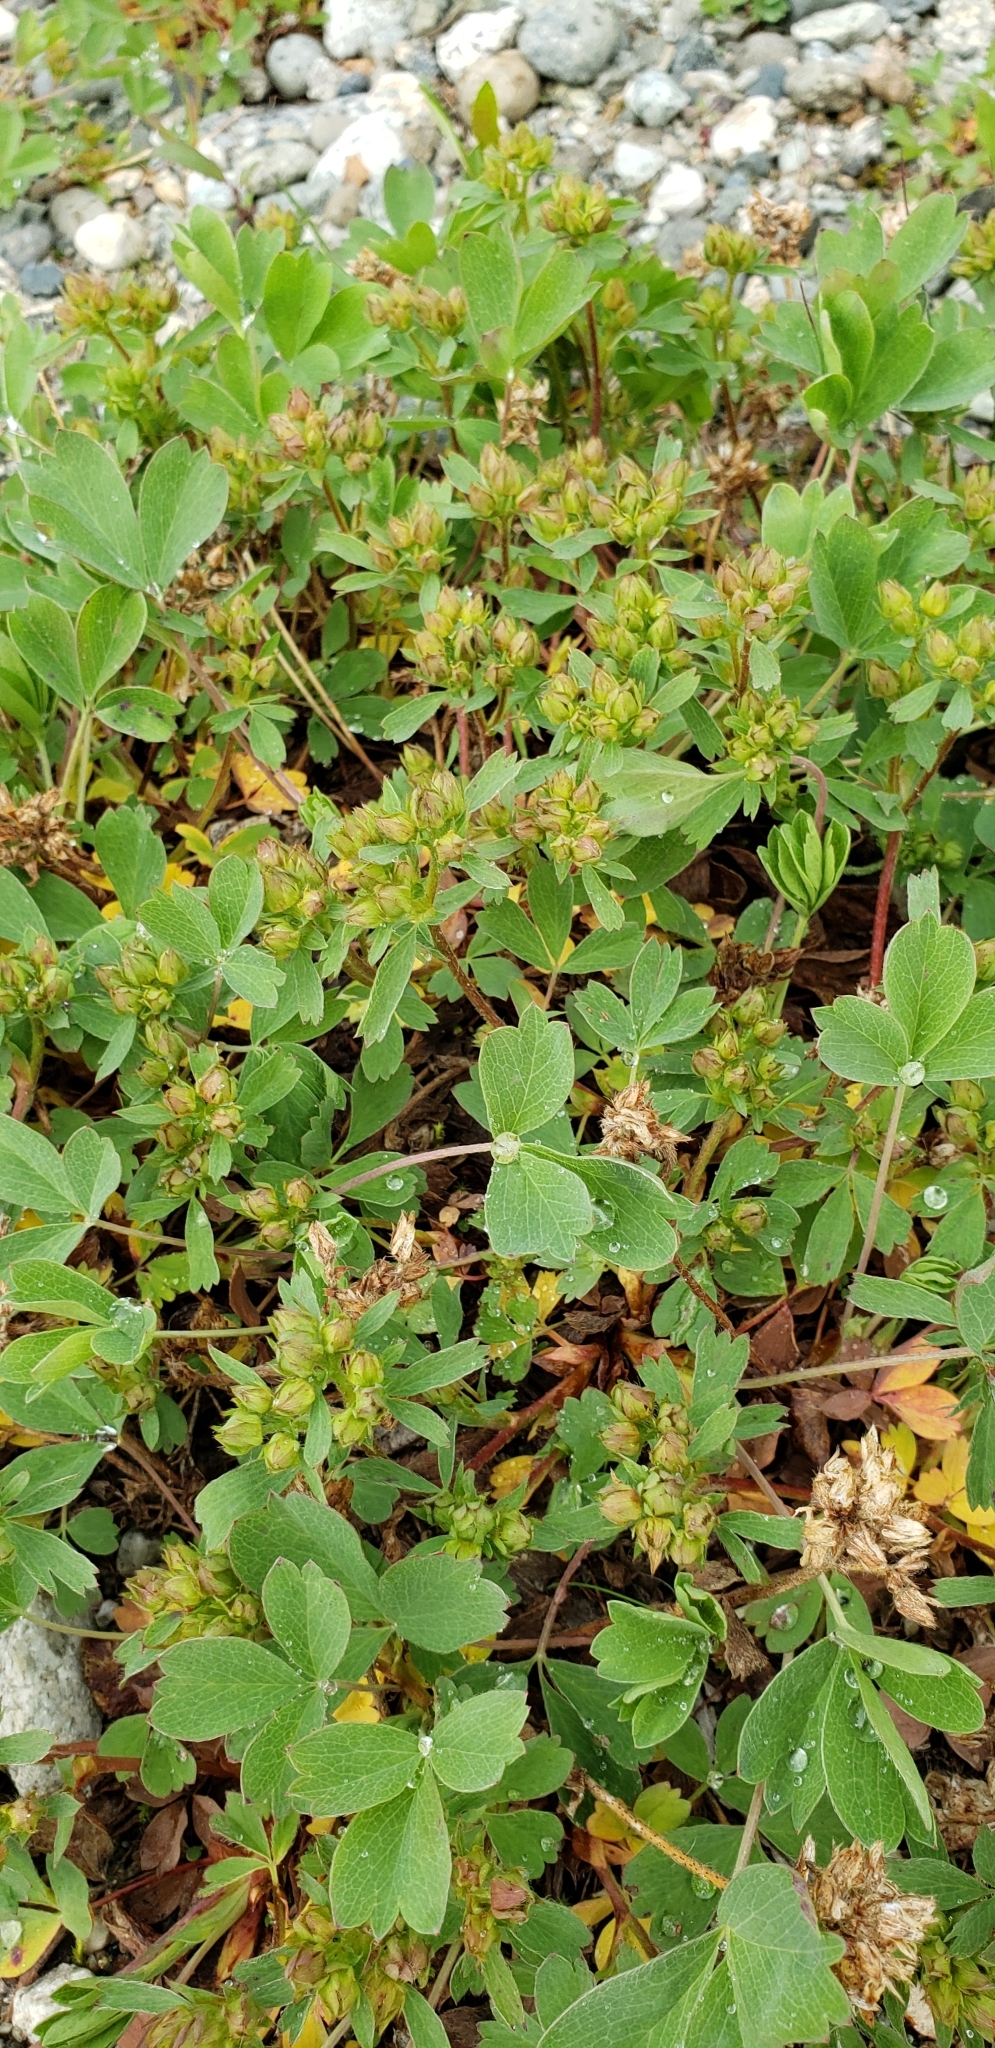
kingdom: Plantae
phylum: Tracheophyta
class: Magnoliopsida
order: Rosales
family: Rosaceae
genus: Sibbaldia
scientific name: Sibbaldia procumbens
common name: Creeping sibbaldia
